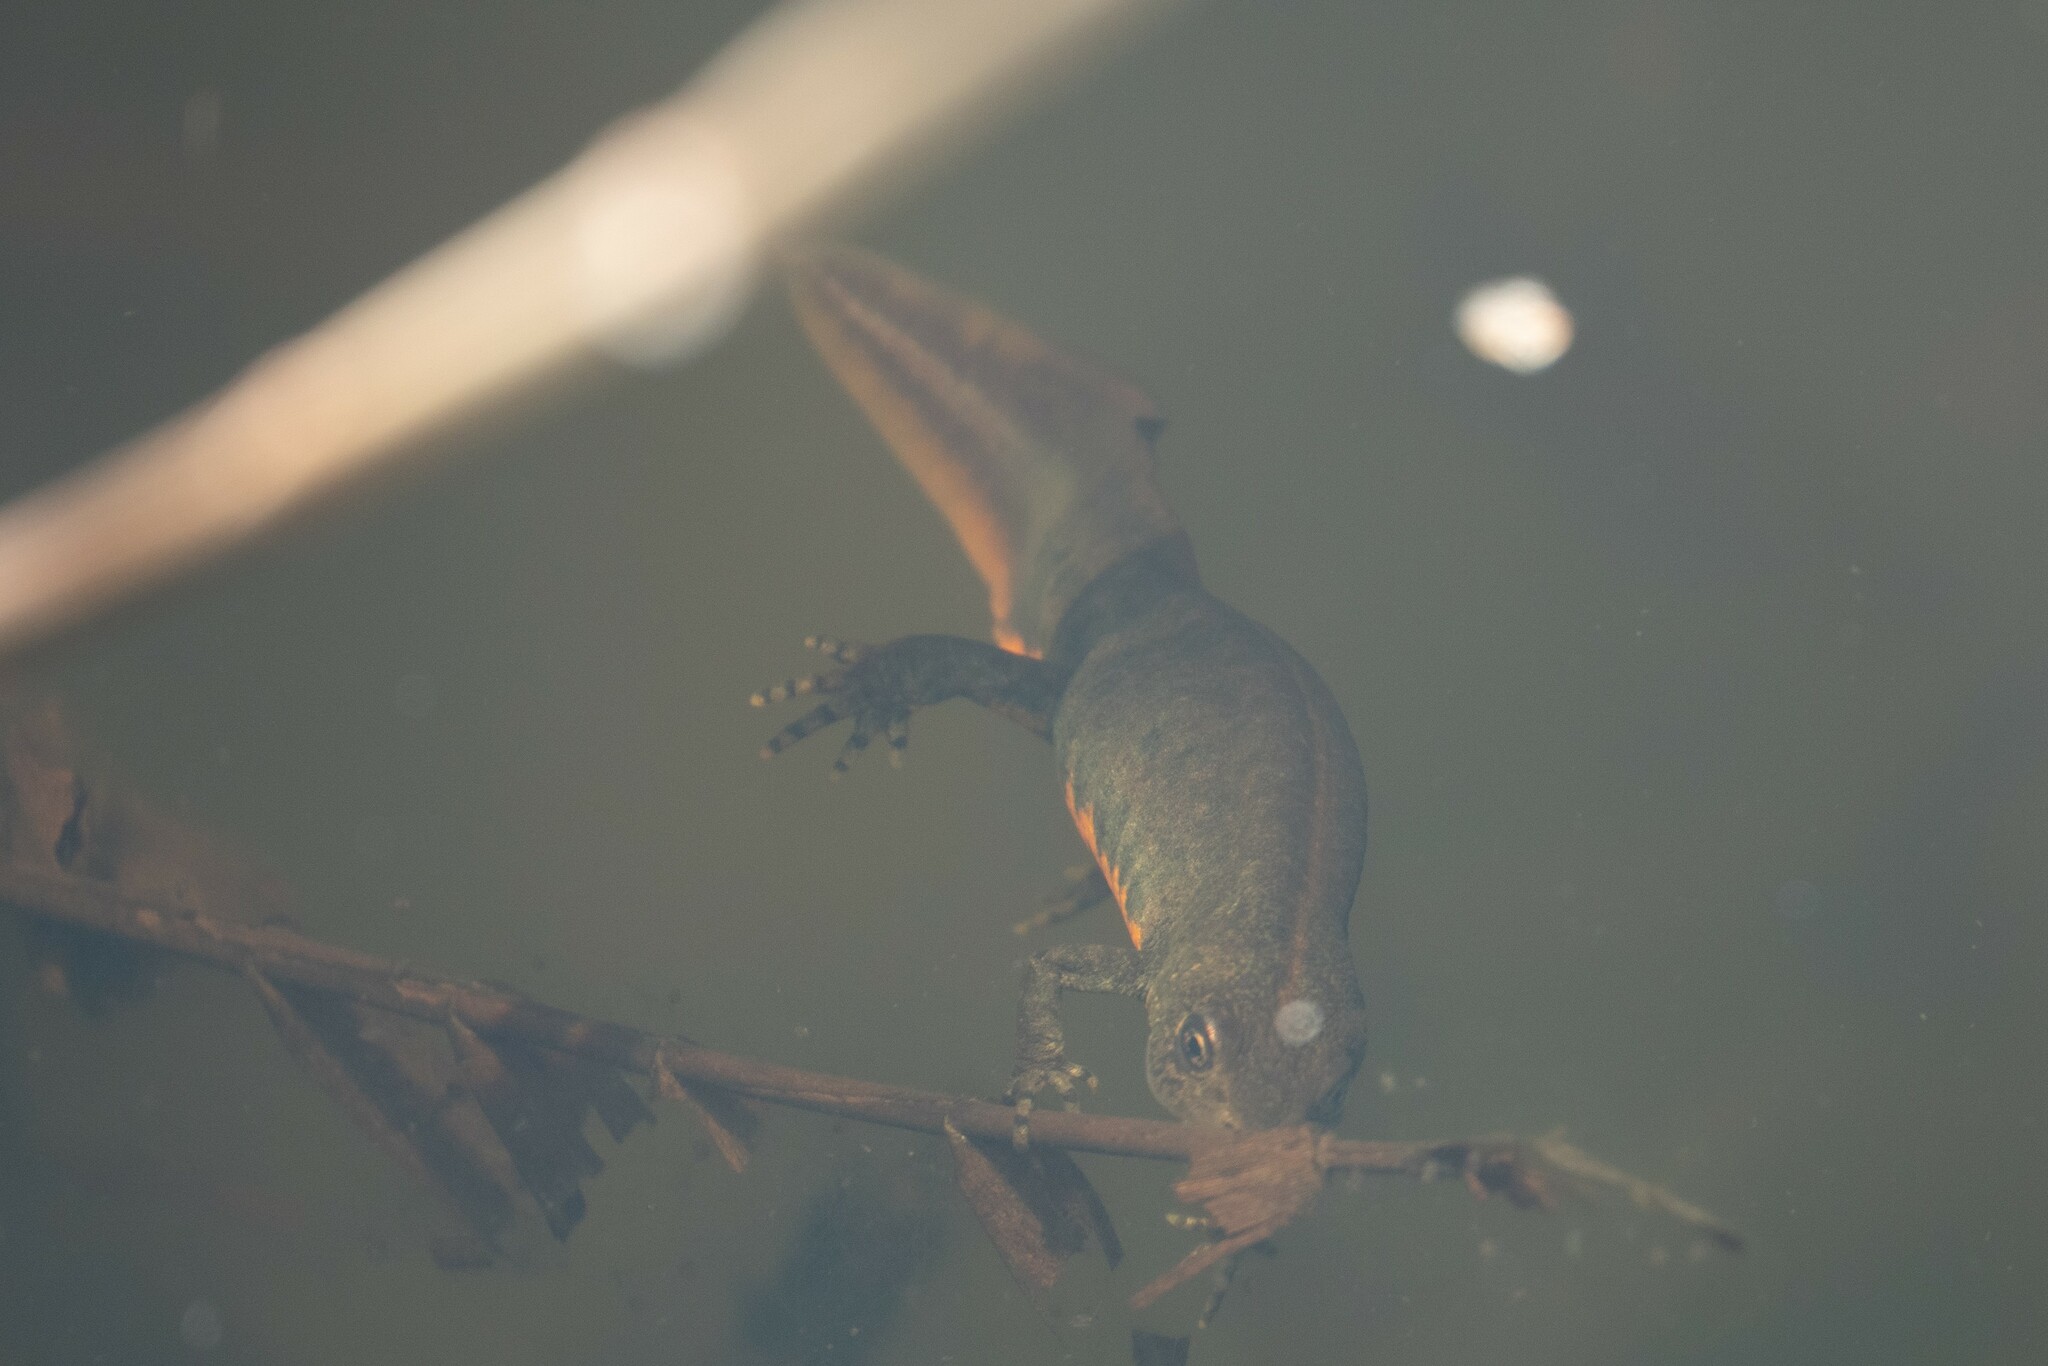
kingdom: Animalia
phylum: Chordata
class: Amphibia
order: Caudata
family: Salamandridae
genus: Triturus
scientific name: Triturus carnifex
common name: Italian crested newt
